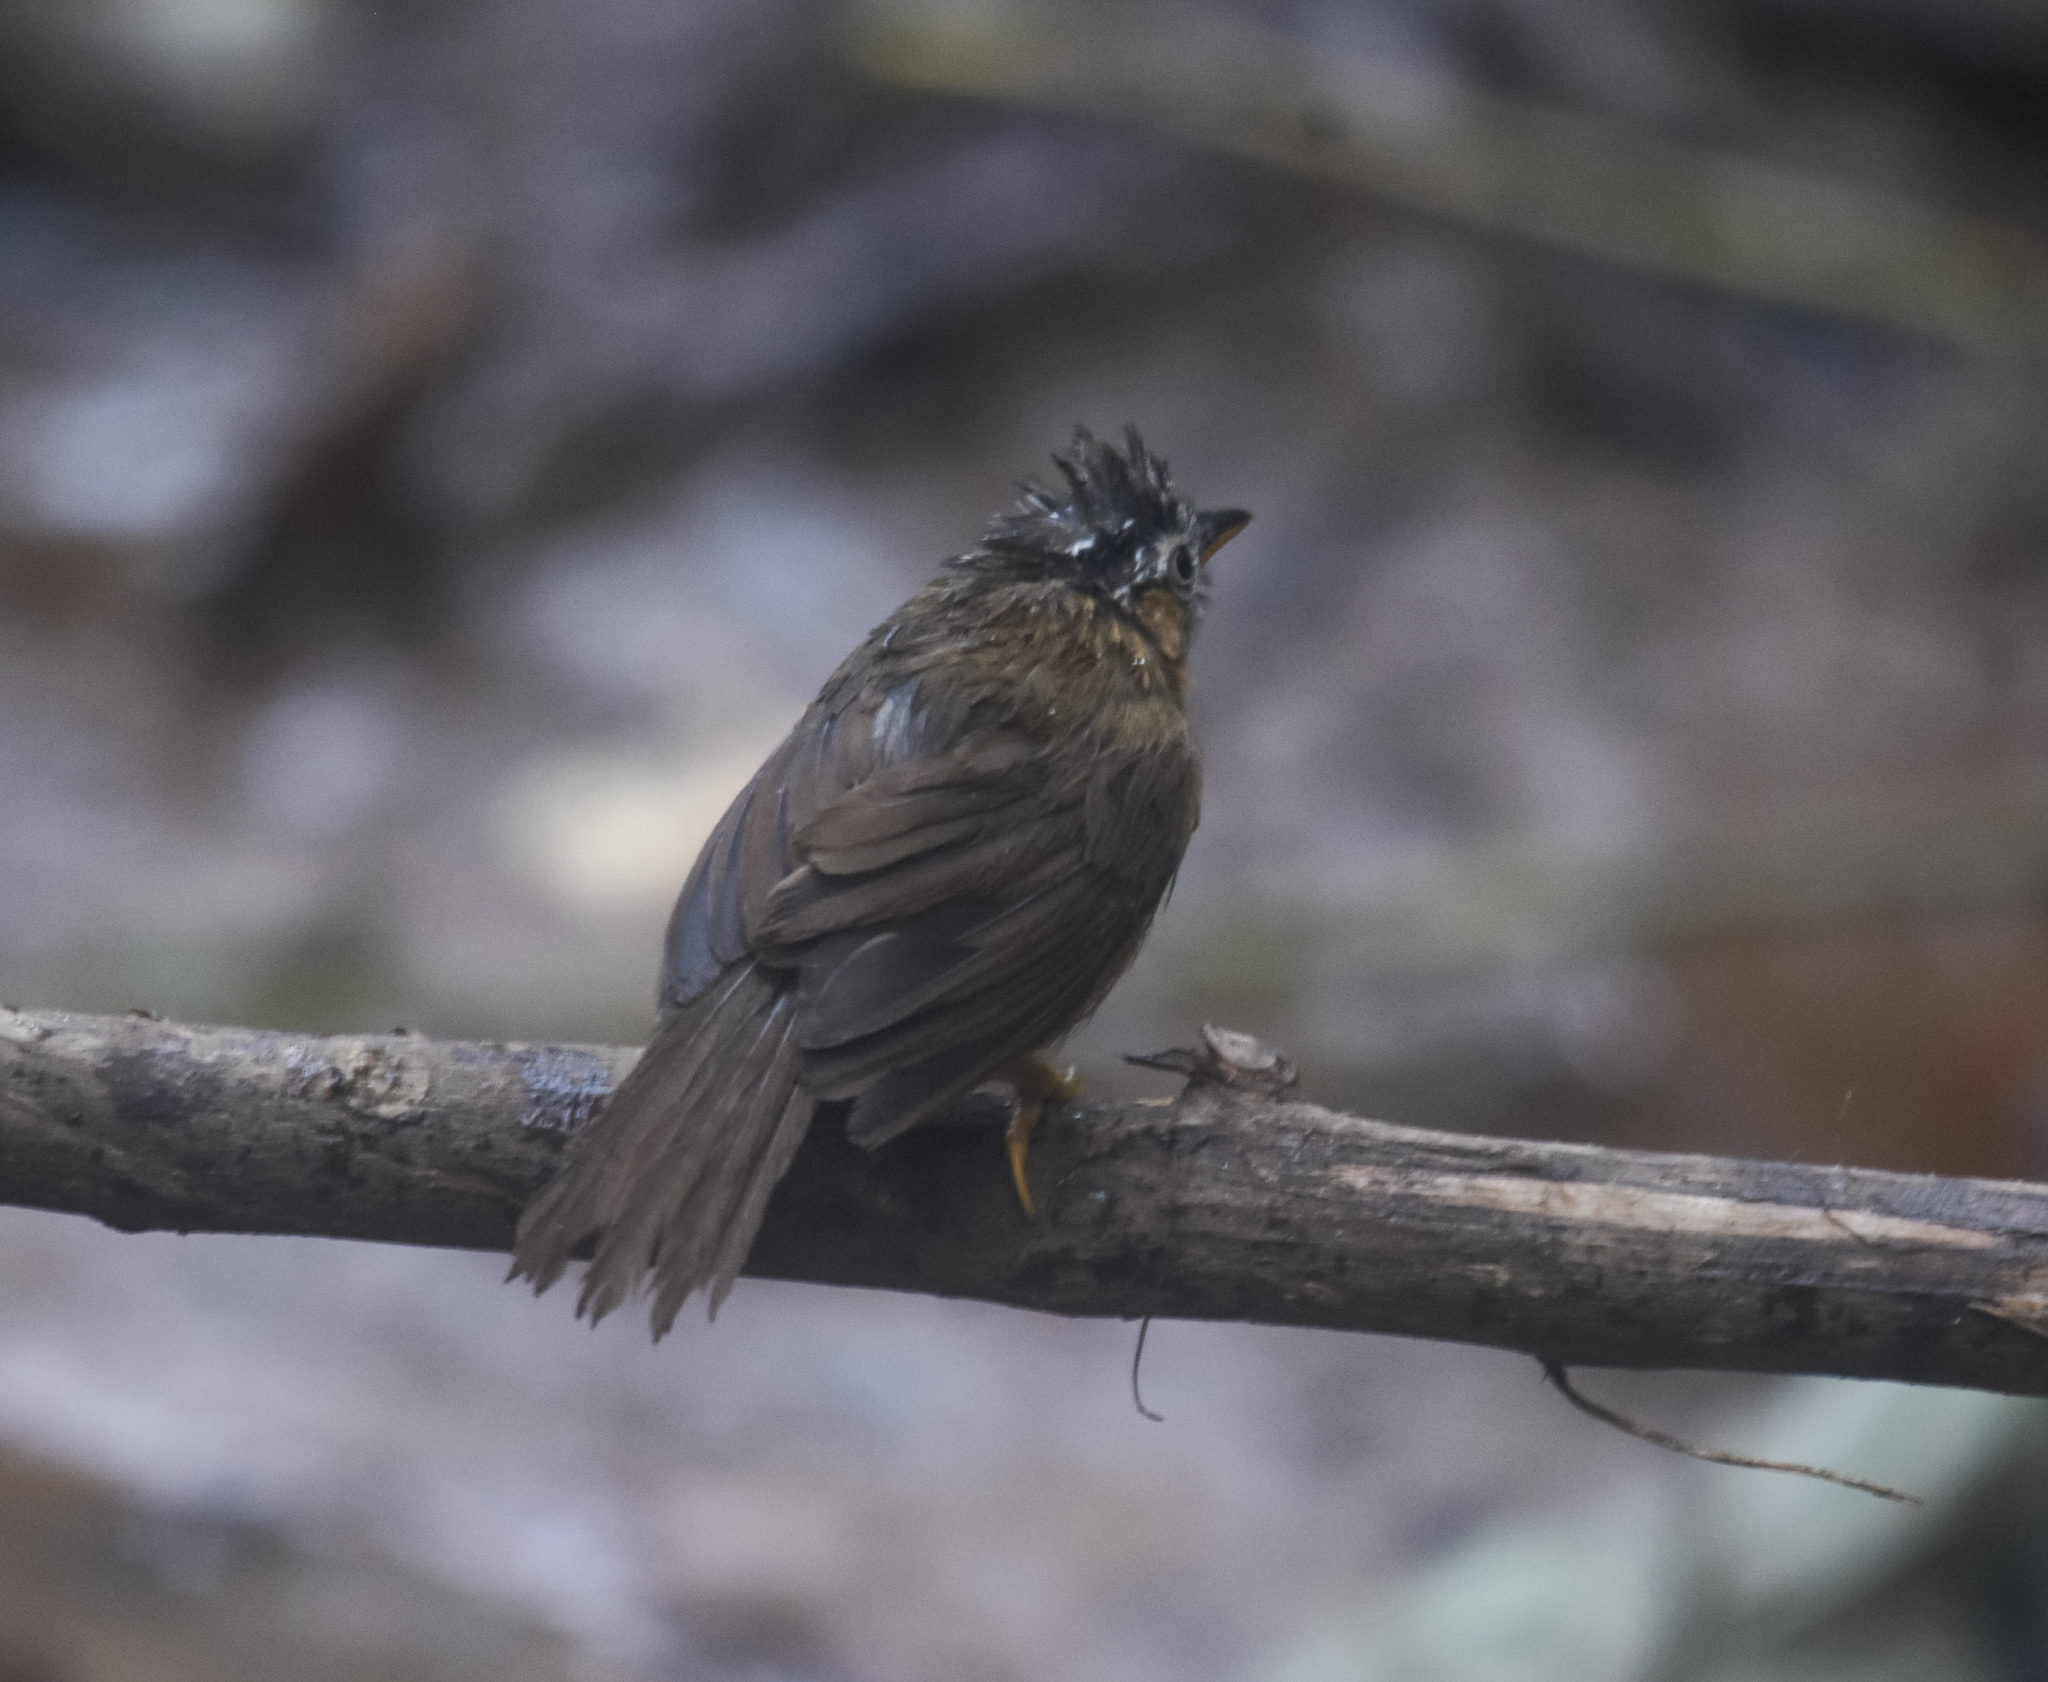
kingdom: Animalia
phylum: Chordata
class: Aves
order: Passeriformes
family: Timaliidae
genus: Stachyris
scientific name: Stachyris nigriceps
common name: Grey-throated babbler
